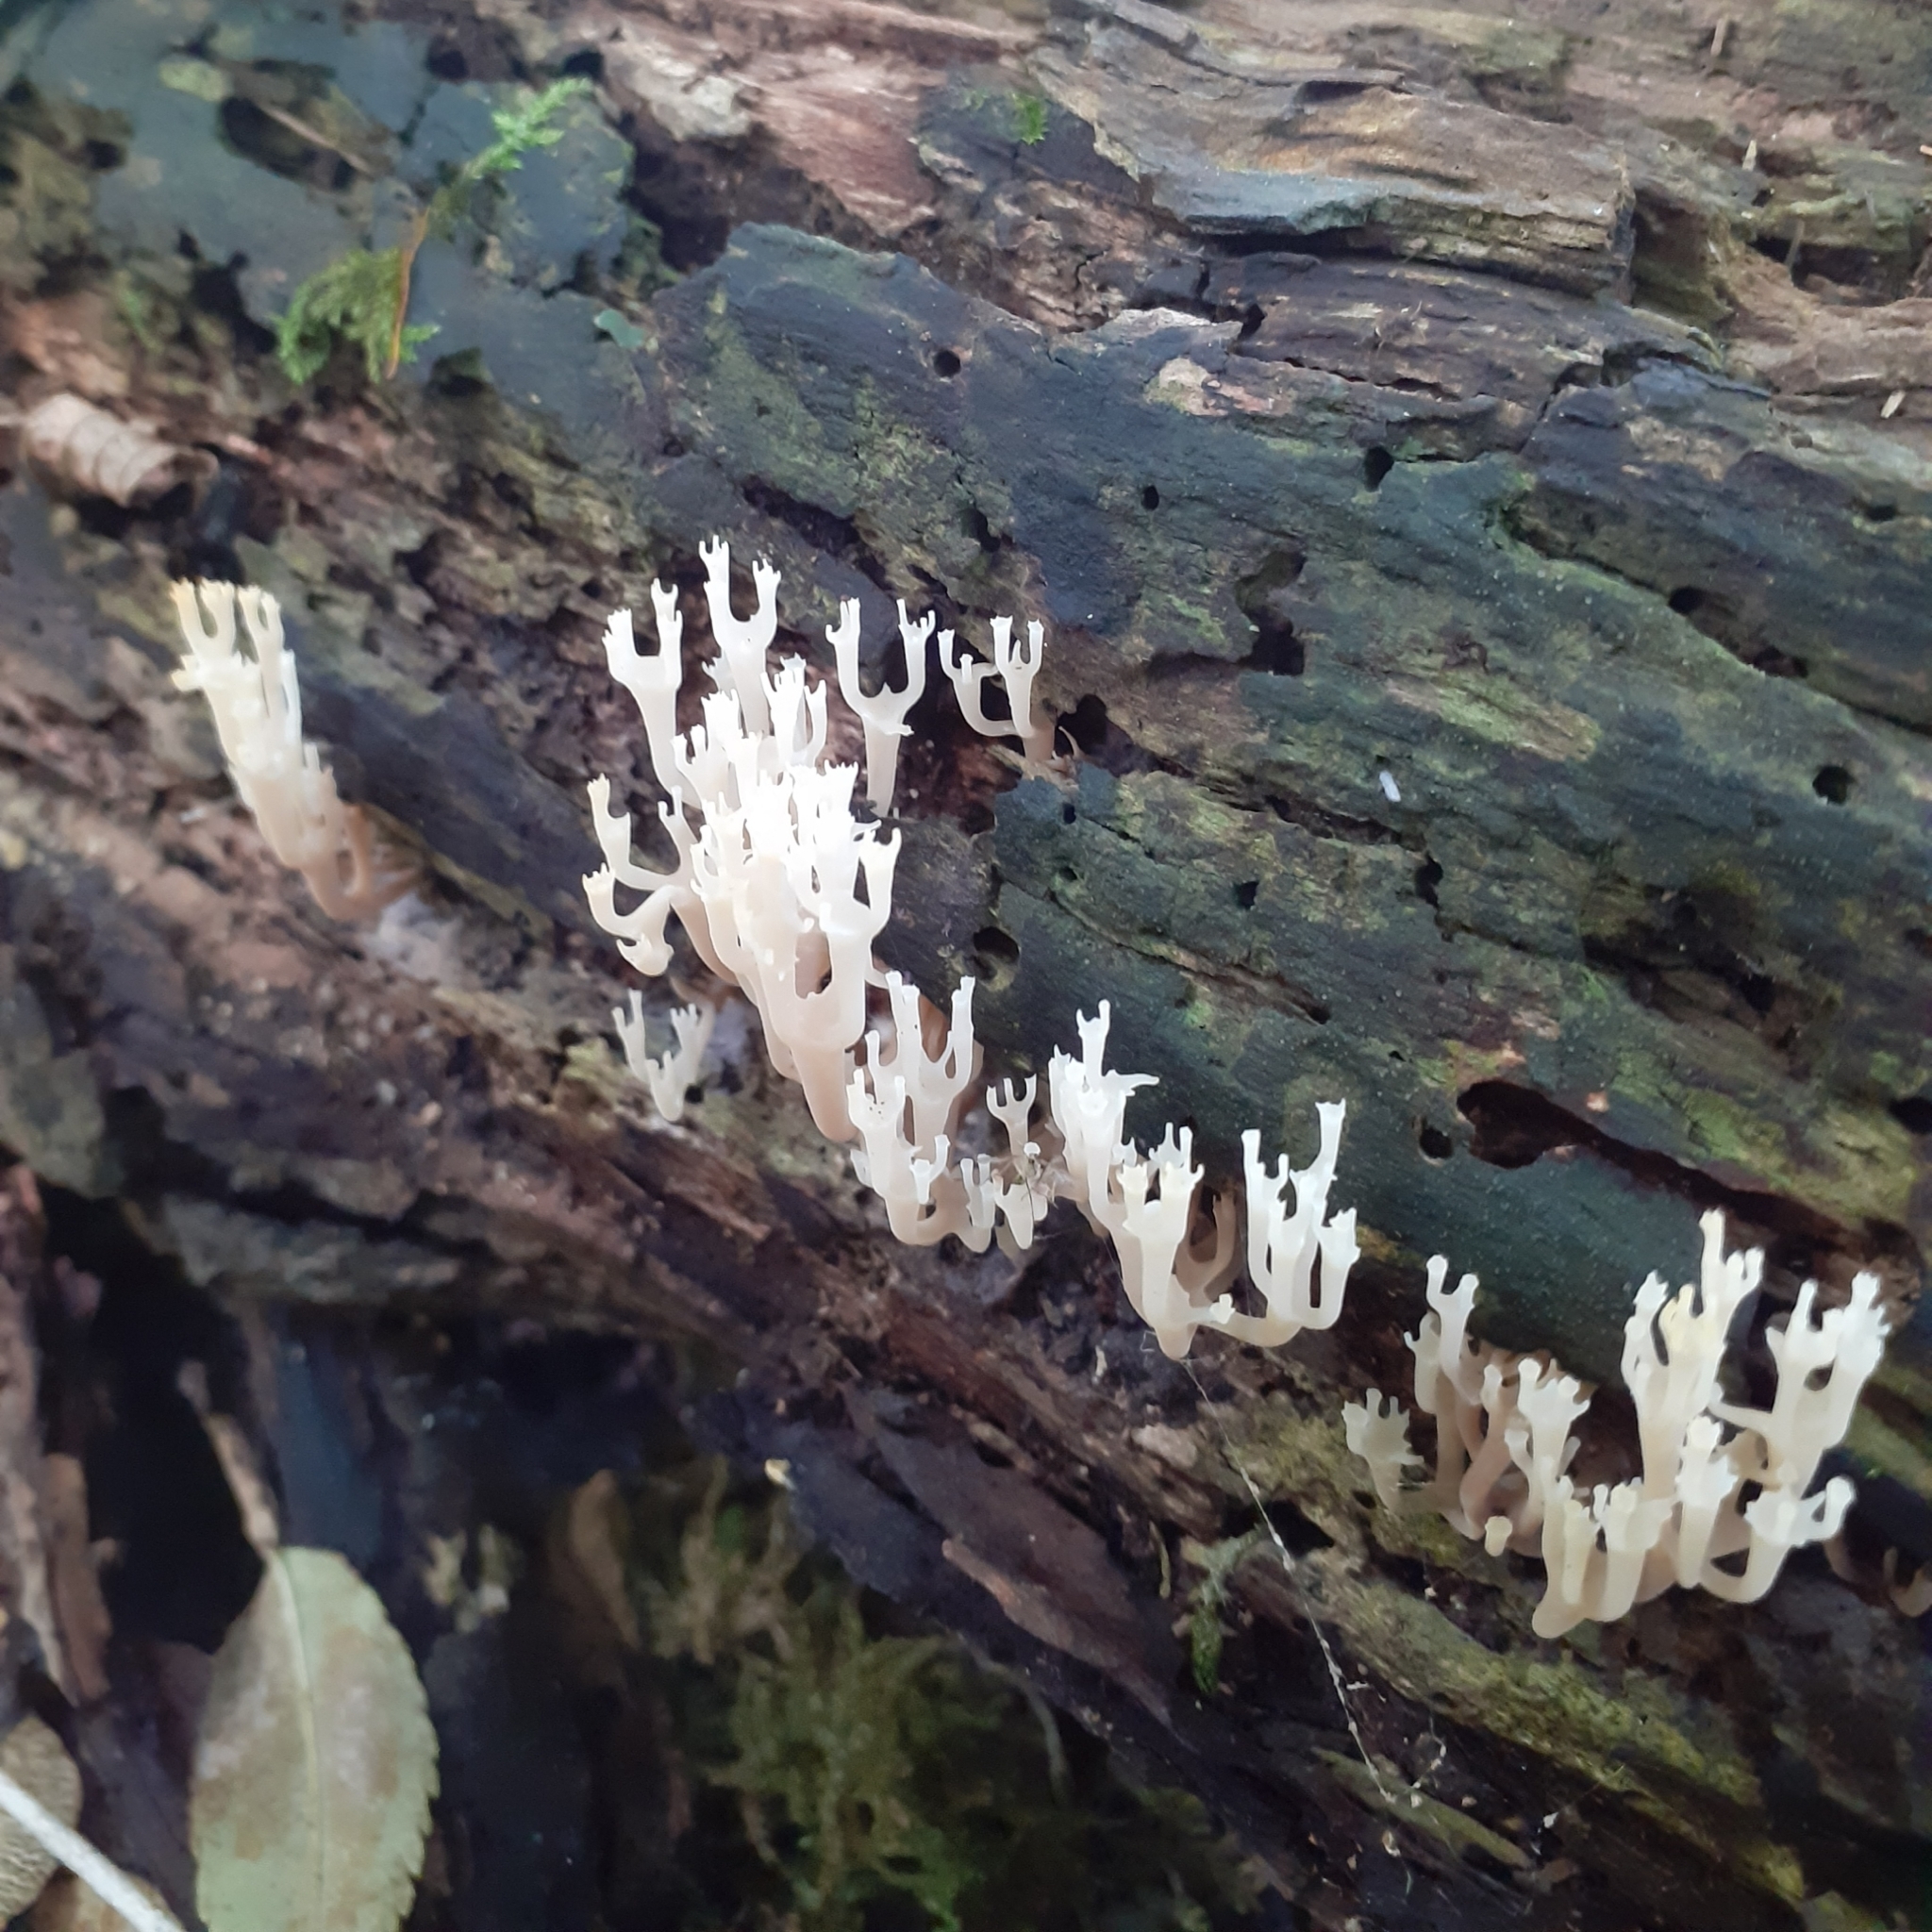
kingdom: Fungi
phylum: Basidiomycota
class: Agaricomycetes
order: Russulales
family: Auriscalpiaceae
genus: Artomyces
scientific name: Artomyces pyxidatus
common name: Crown-tipped coral fungus
